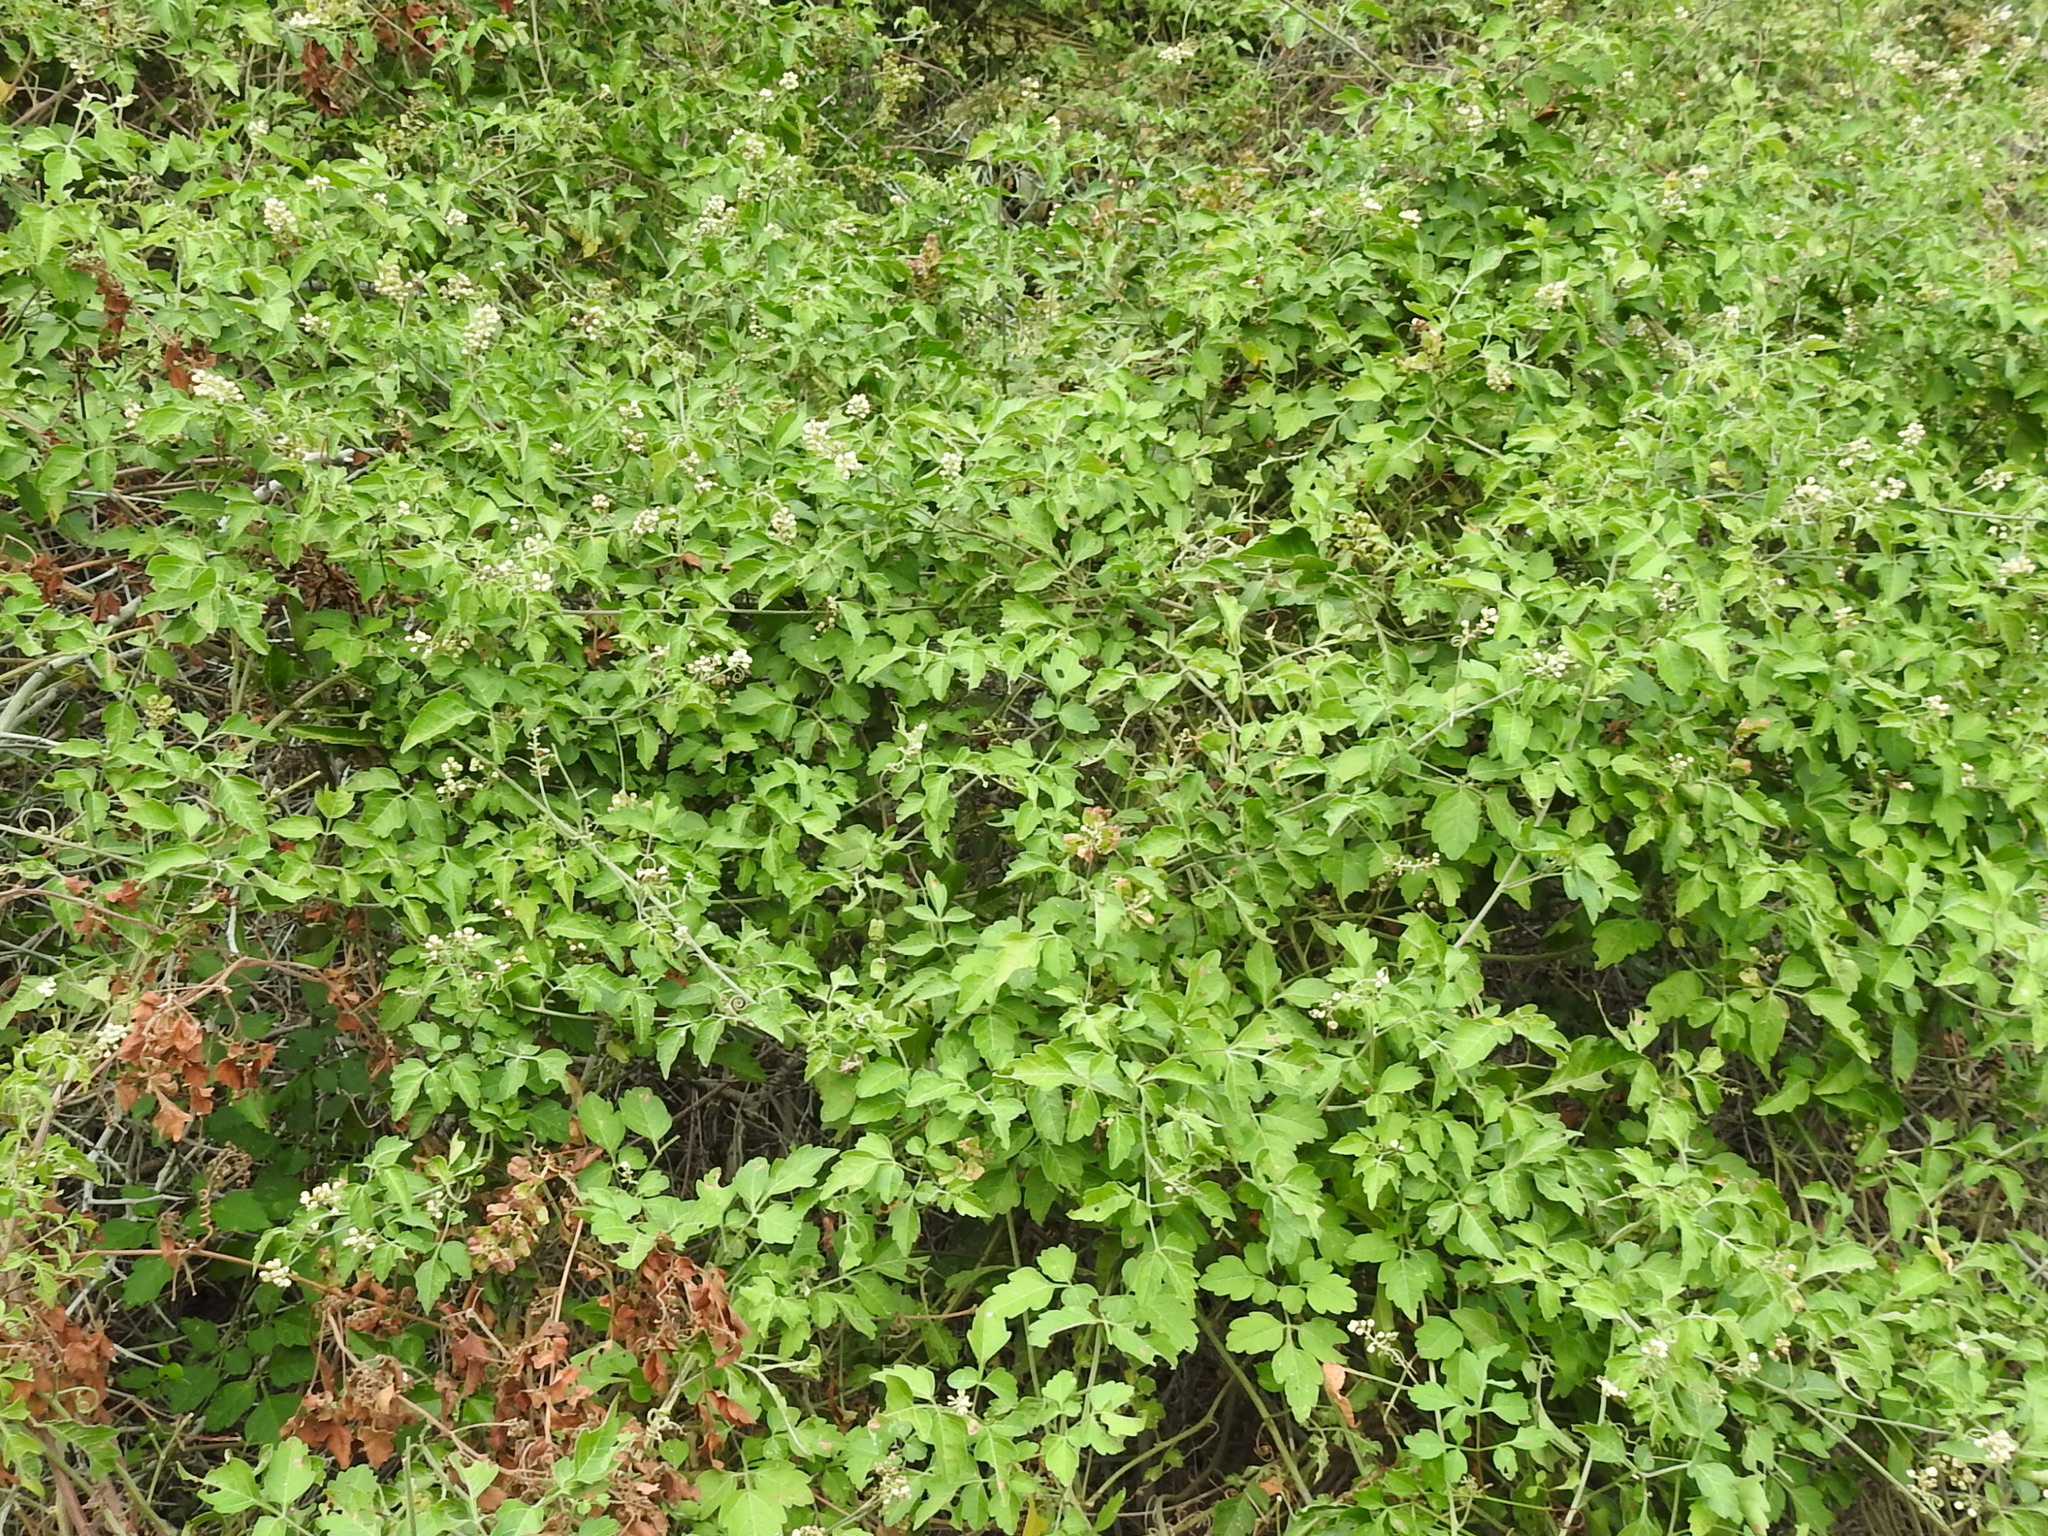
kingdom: Plantae
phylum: Tracheophyta
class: Magnoliopsida
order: Sapindales
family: Sapindaceae
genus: Serjania
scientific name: Serjania brachycarpa
